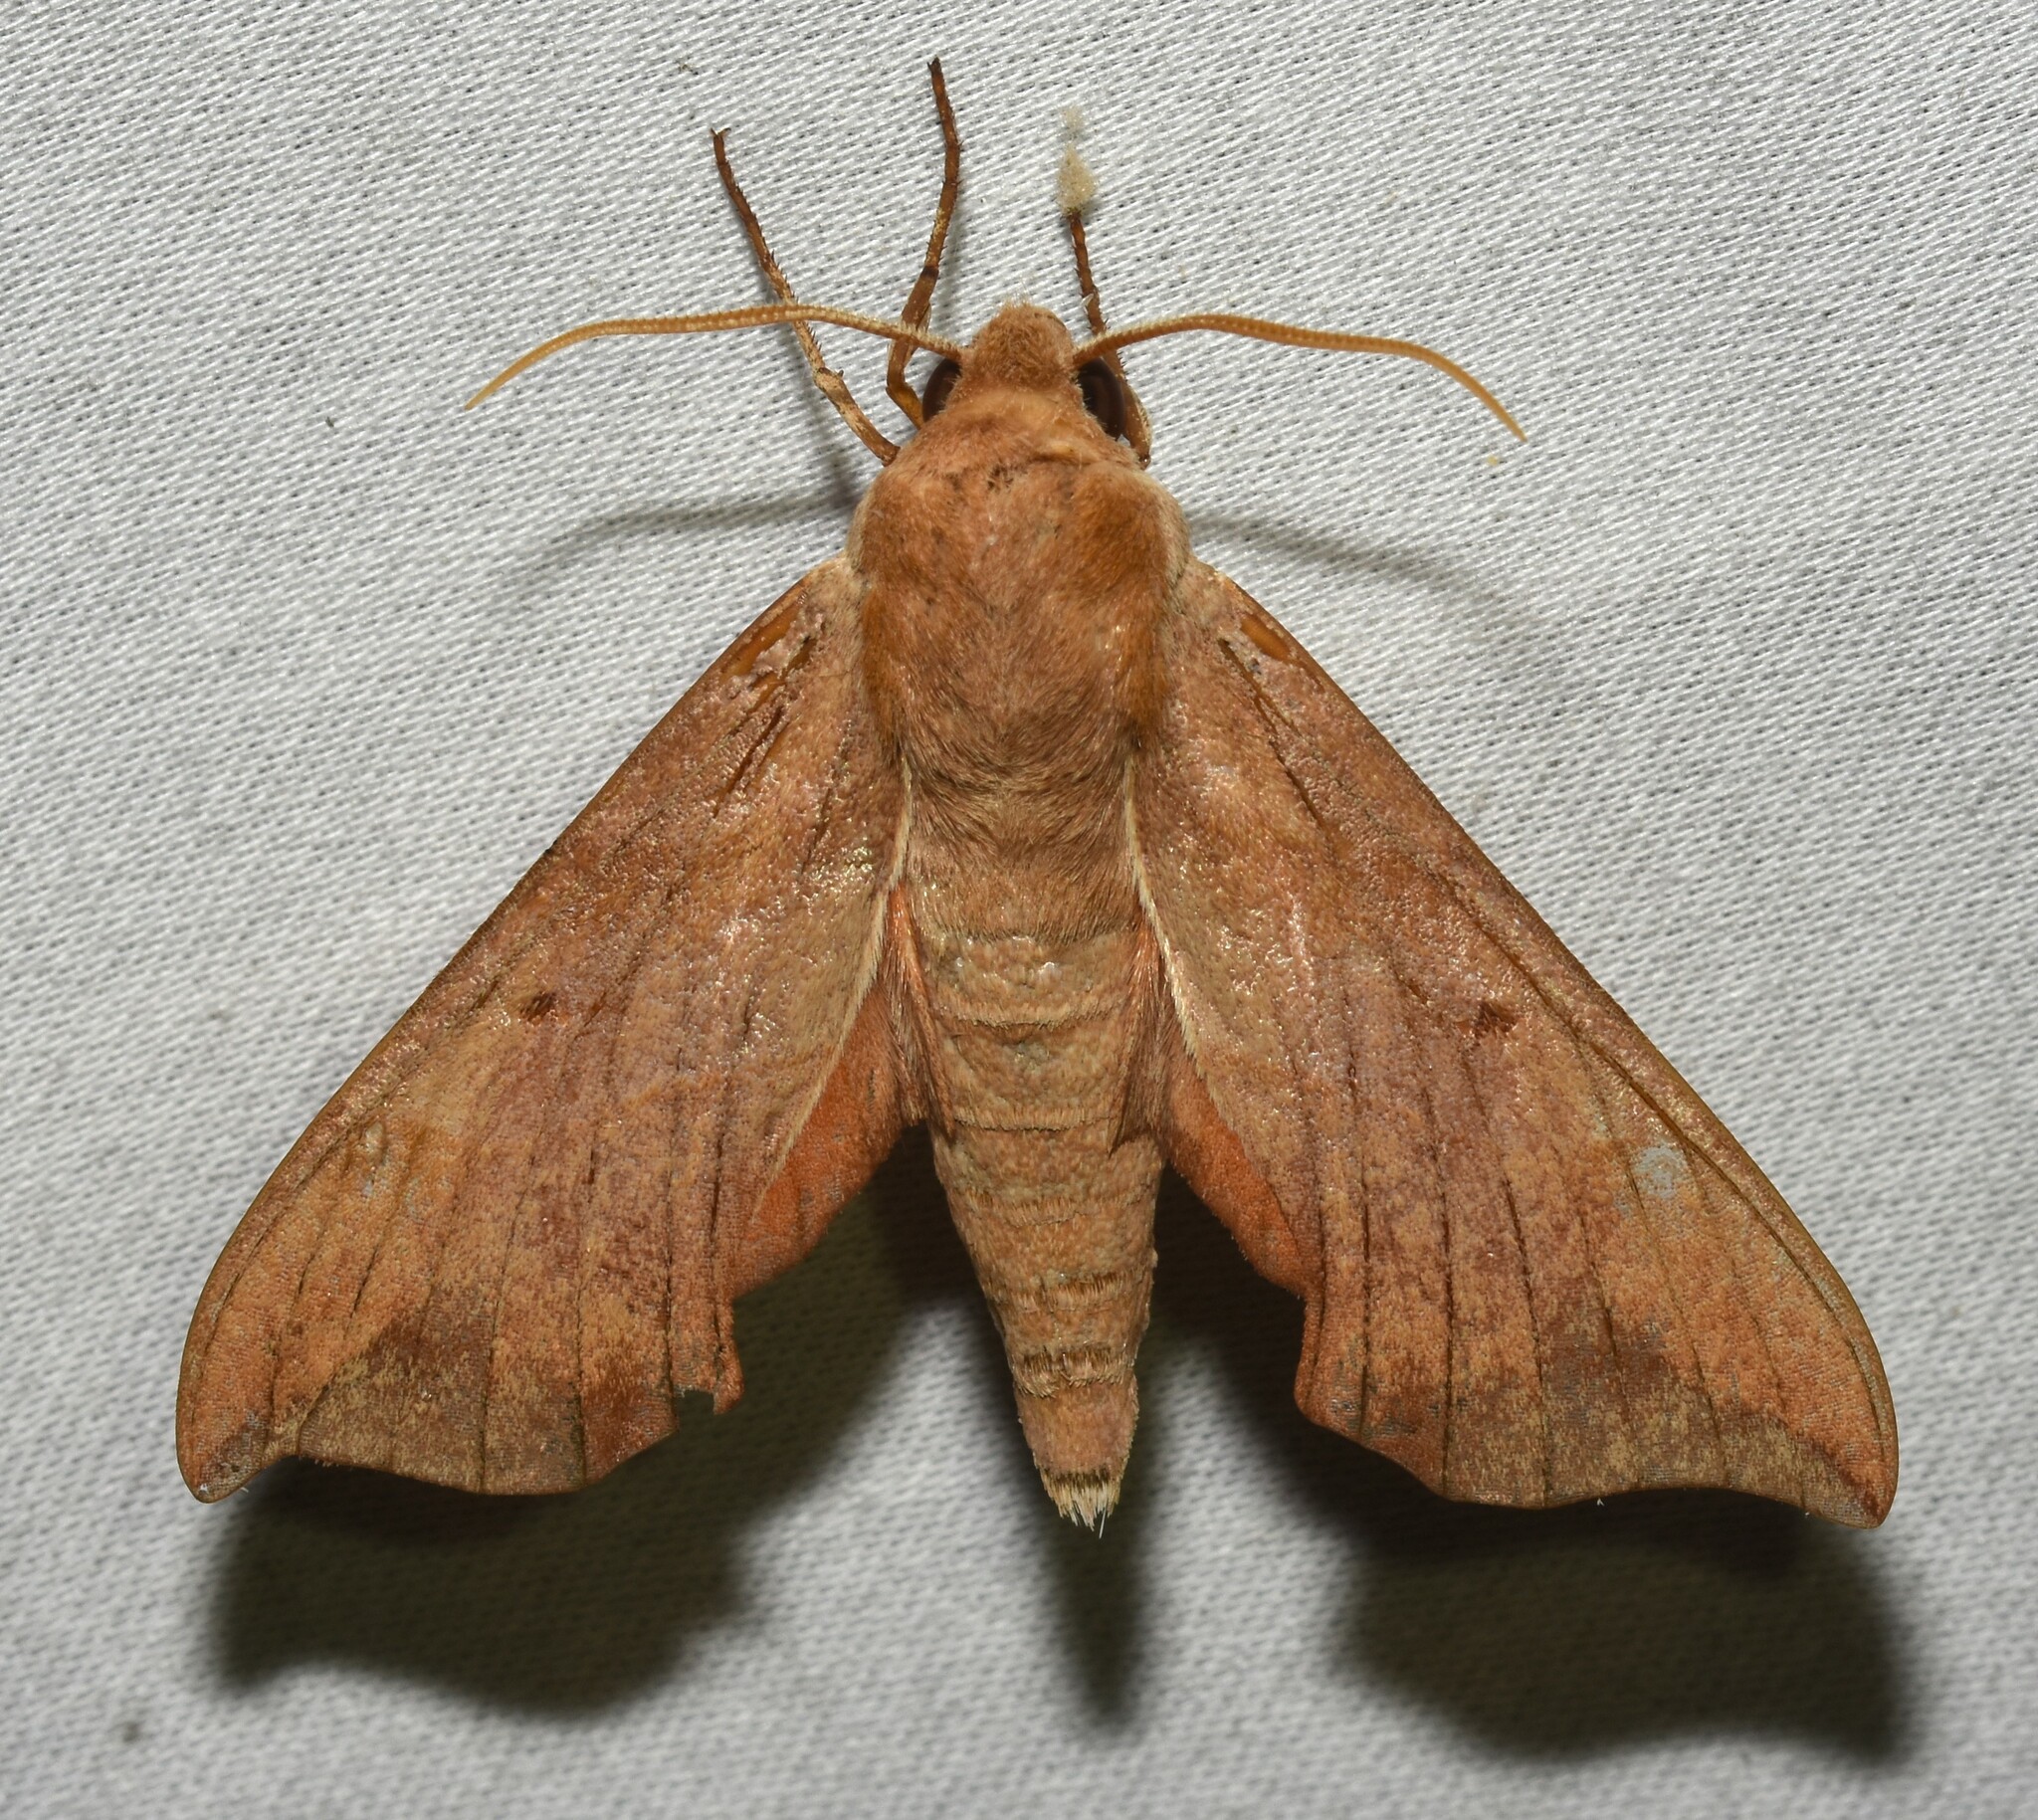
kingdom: Animalia
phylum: Arthropoda
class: Insecta
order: Lepidoptera
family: Sphingidae
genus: Darapsa
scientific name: Darapsa myron
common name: Hog sphinx
